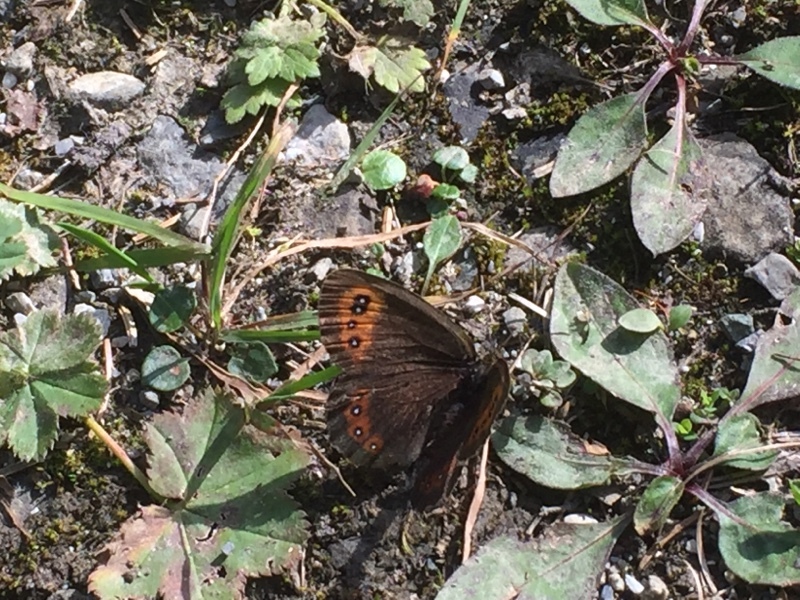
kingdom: Animalia
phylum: Arthropoda
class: Insecta
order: Lepidoptera
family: Nymphalidae
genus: Erebia
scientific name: Erebia aethiops
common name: Scotch argus
